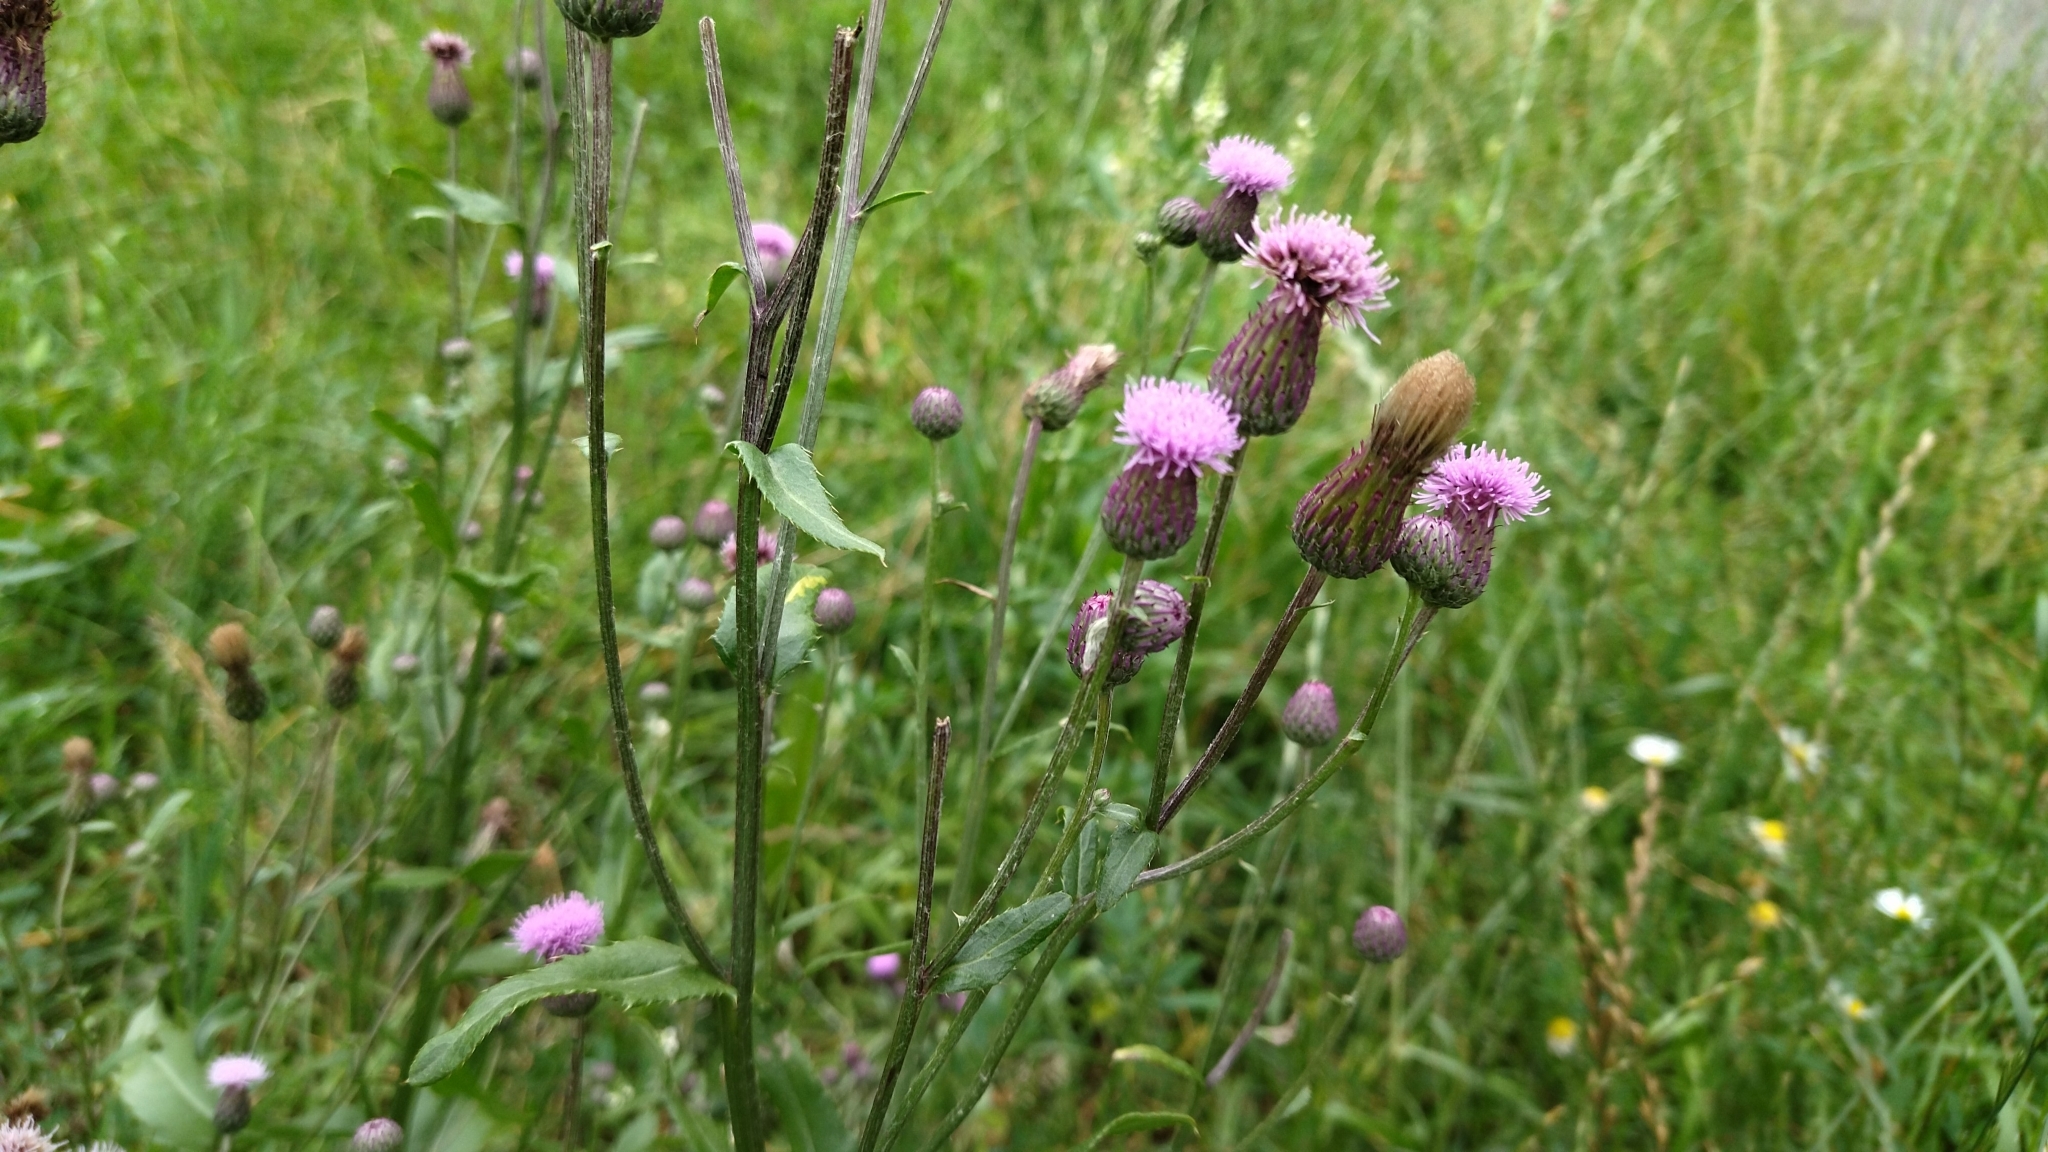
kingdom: Plantae
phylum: Tracheophyta
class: Magnoliopsida
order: Asterales
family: Asteraceae
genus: Cirsium
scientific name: Cirsium arvense
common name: Creeping thistle
